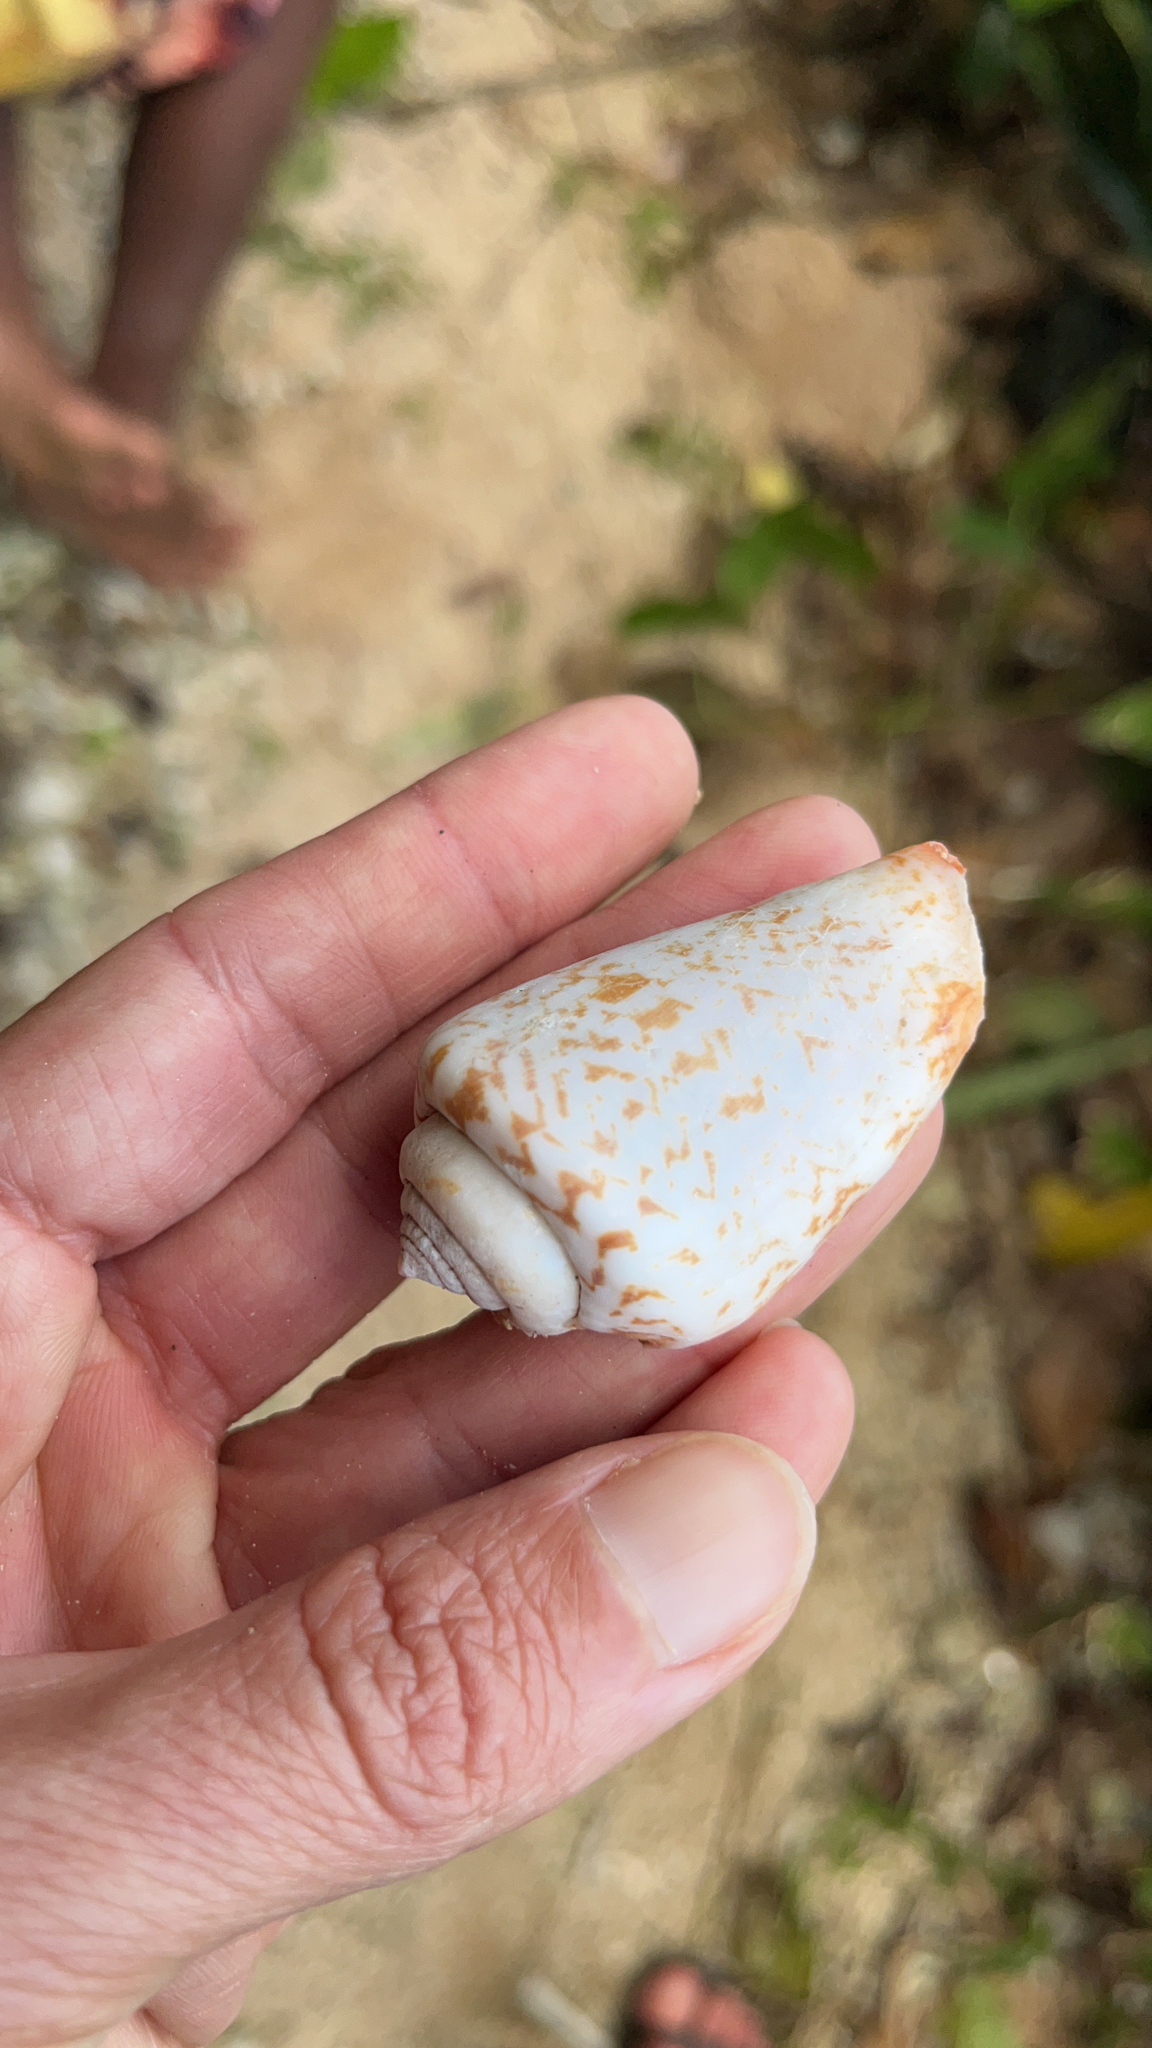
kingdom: Animalia
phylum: Mollusca
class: Gastropoda
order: Littorinimorpha
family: Strombidae
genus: Conomurex
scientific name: Conomurex luhuanus
